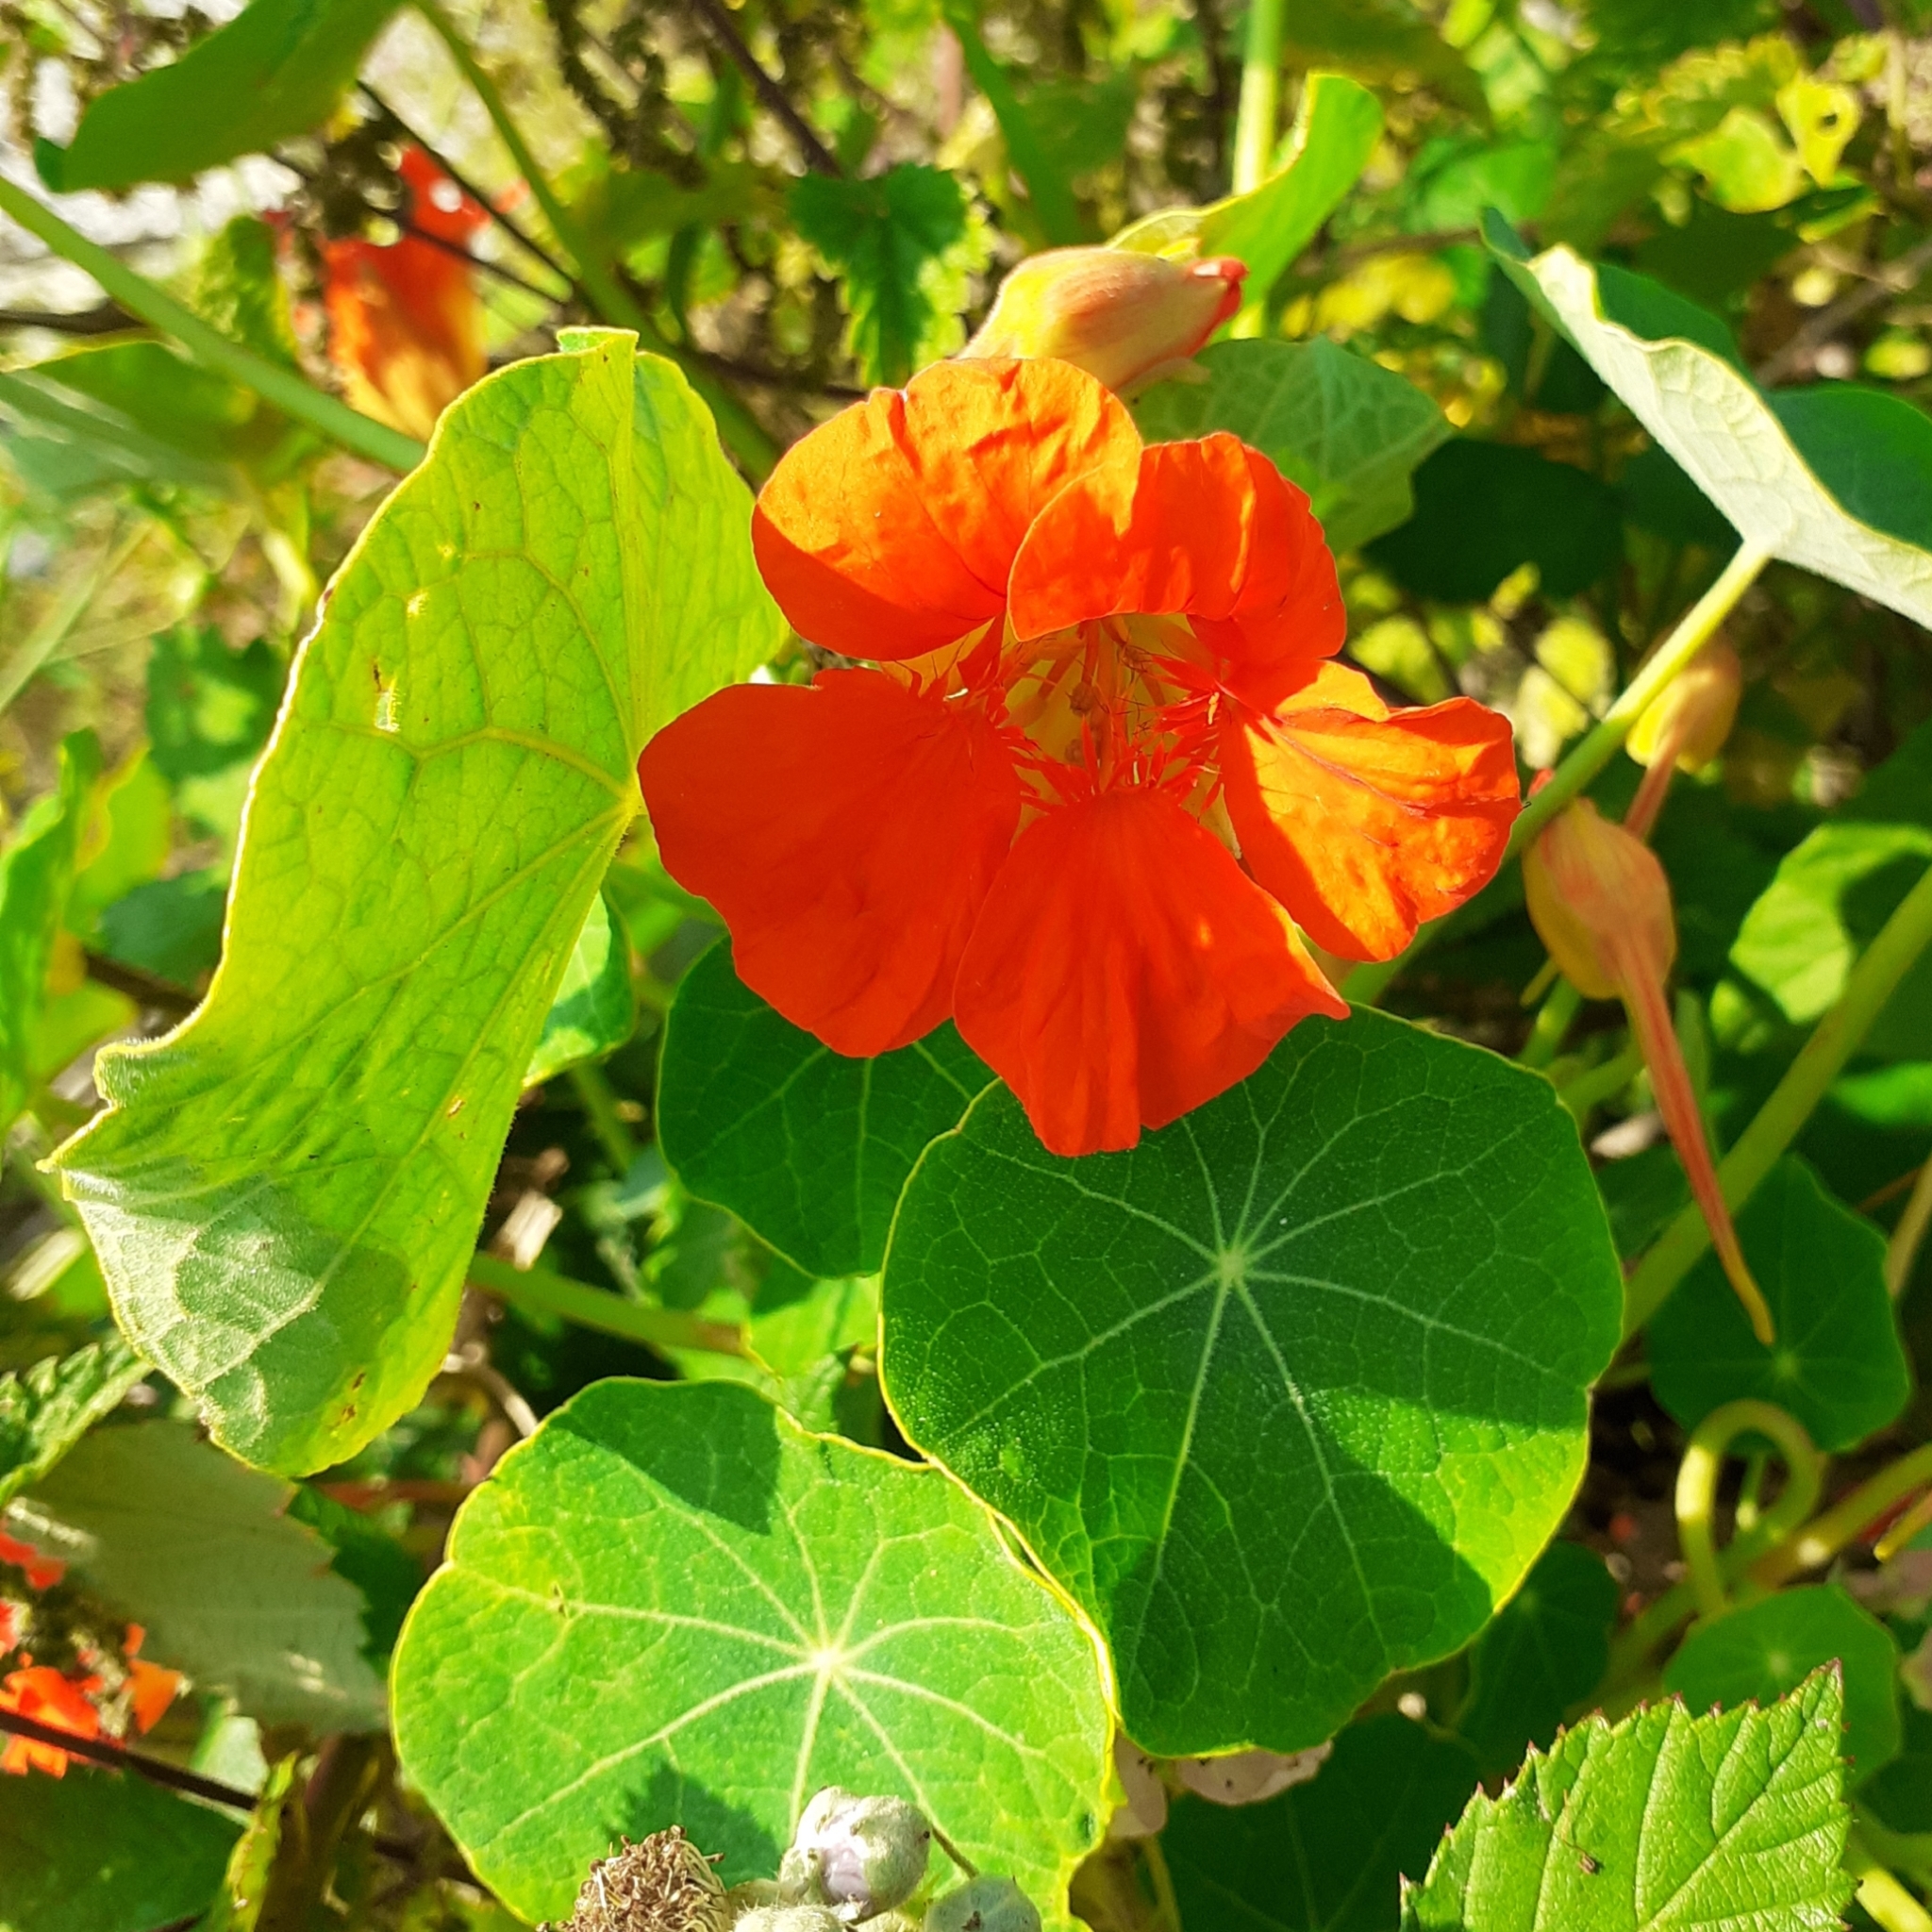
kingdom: Plantae
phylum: Tracheophyta
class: Magnoliopsida
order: Brassicales
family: Tropaeolaceae
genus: Tropaeolum
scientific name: Tropaeolum majus
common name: Nasturtium
